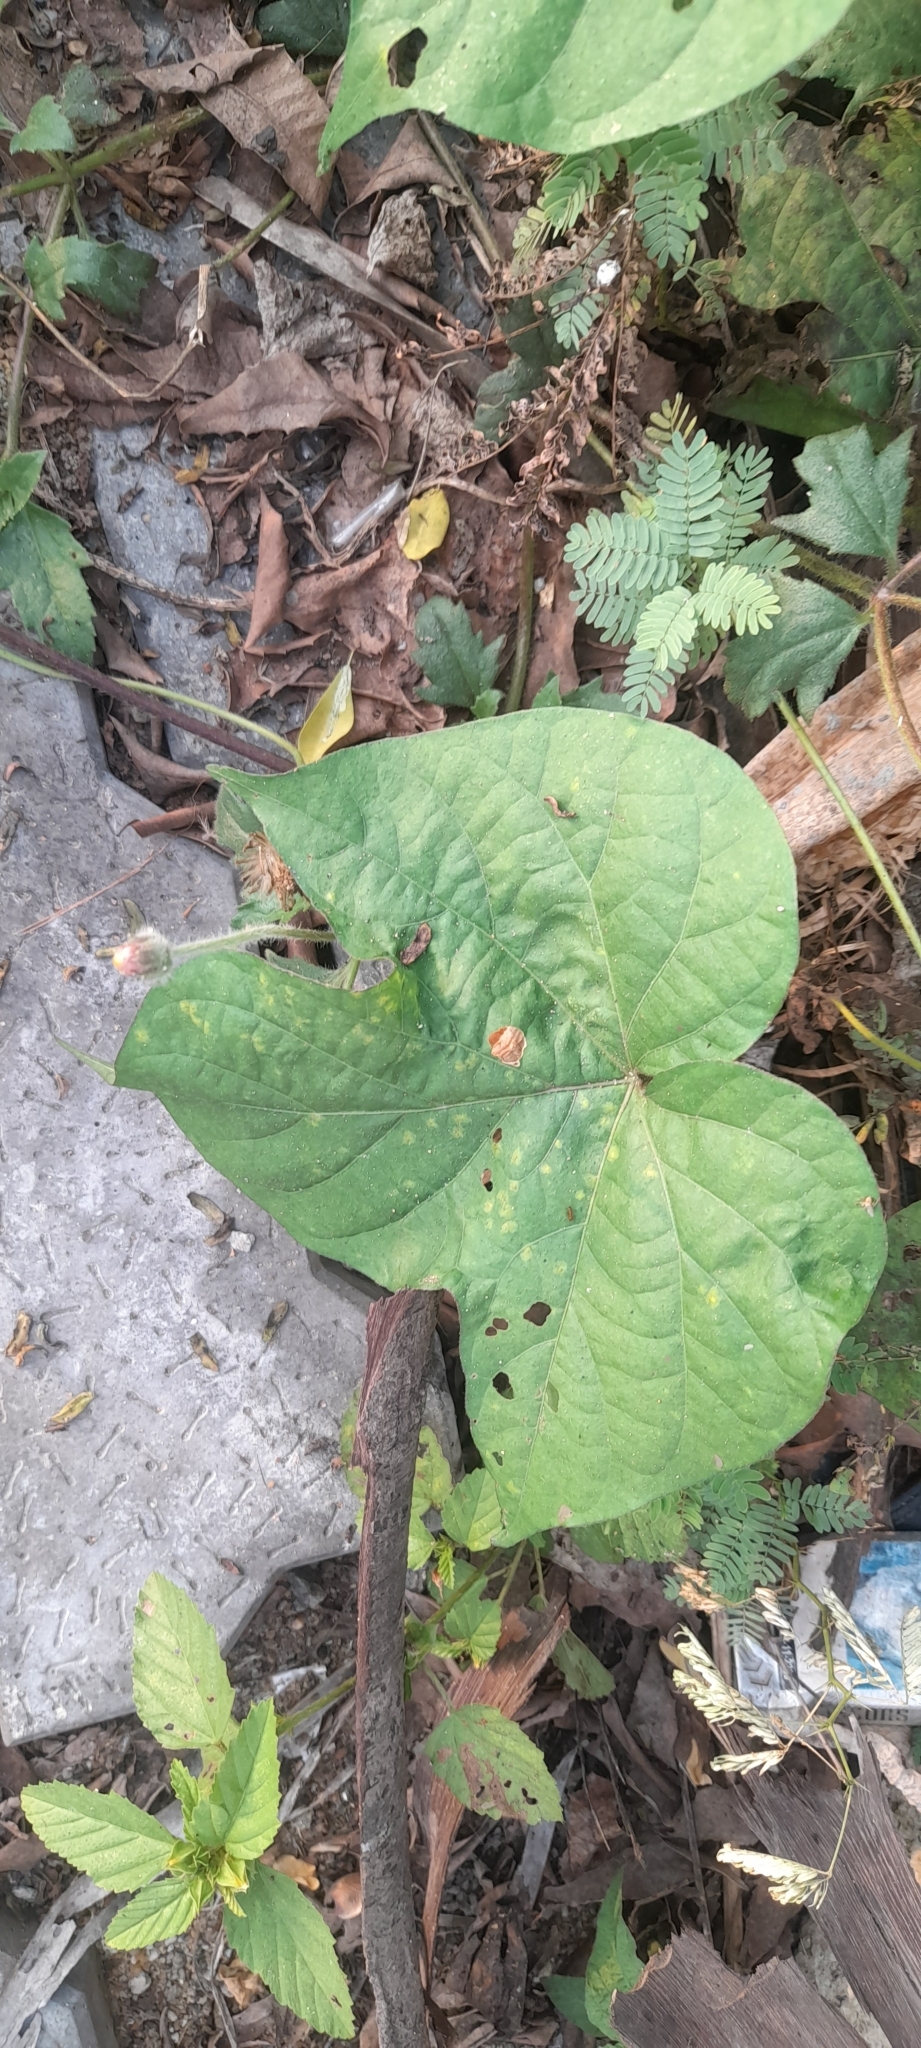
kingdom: Plantae
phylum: Tracheophyta
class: Magnoliopsida
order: Solanales
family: Convolvulaceae
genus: Ipomoea
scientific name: Ipomoea nil
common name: Japanese morning-glory
